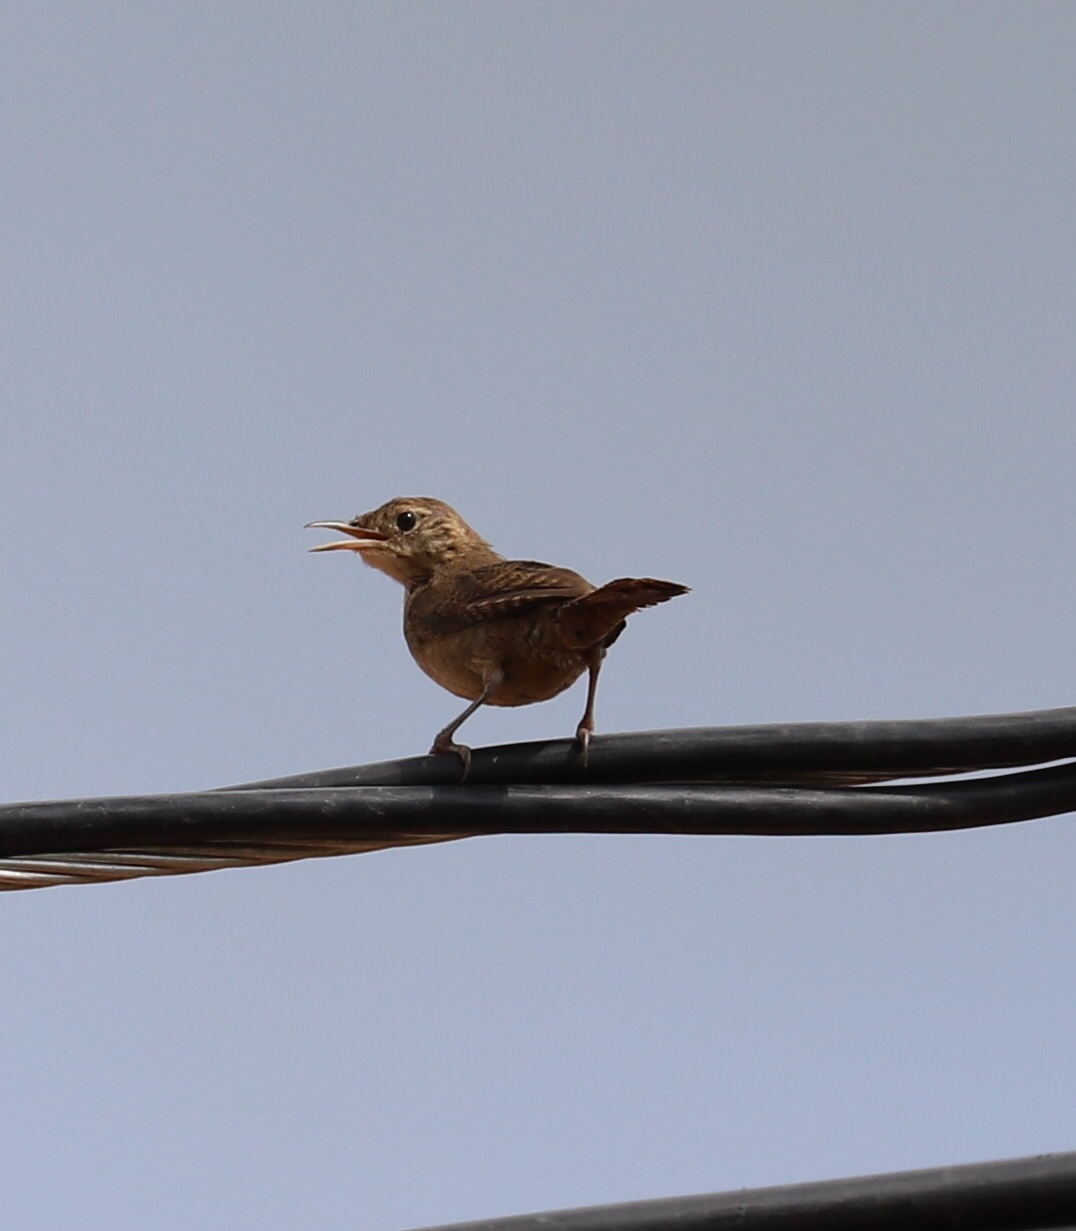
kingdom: Animalia
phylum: Chordata
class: Aves
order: Passeriformes
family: Troglodytidae
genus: Troglodytes
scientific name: Troglodytes aedon
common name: House wren
